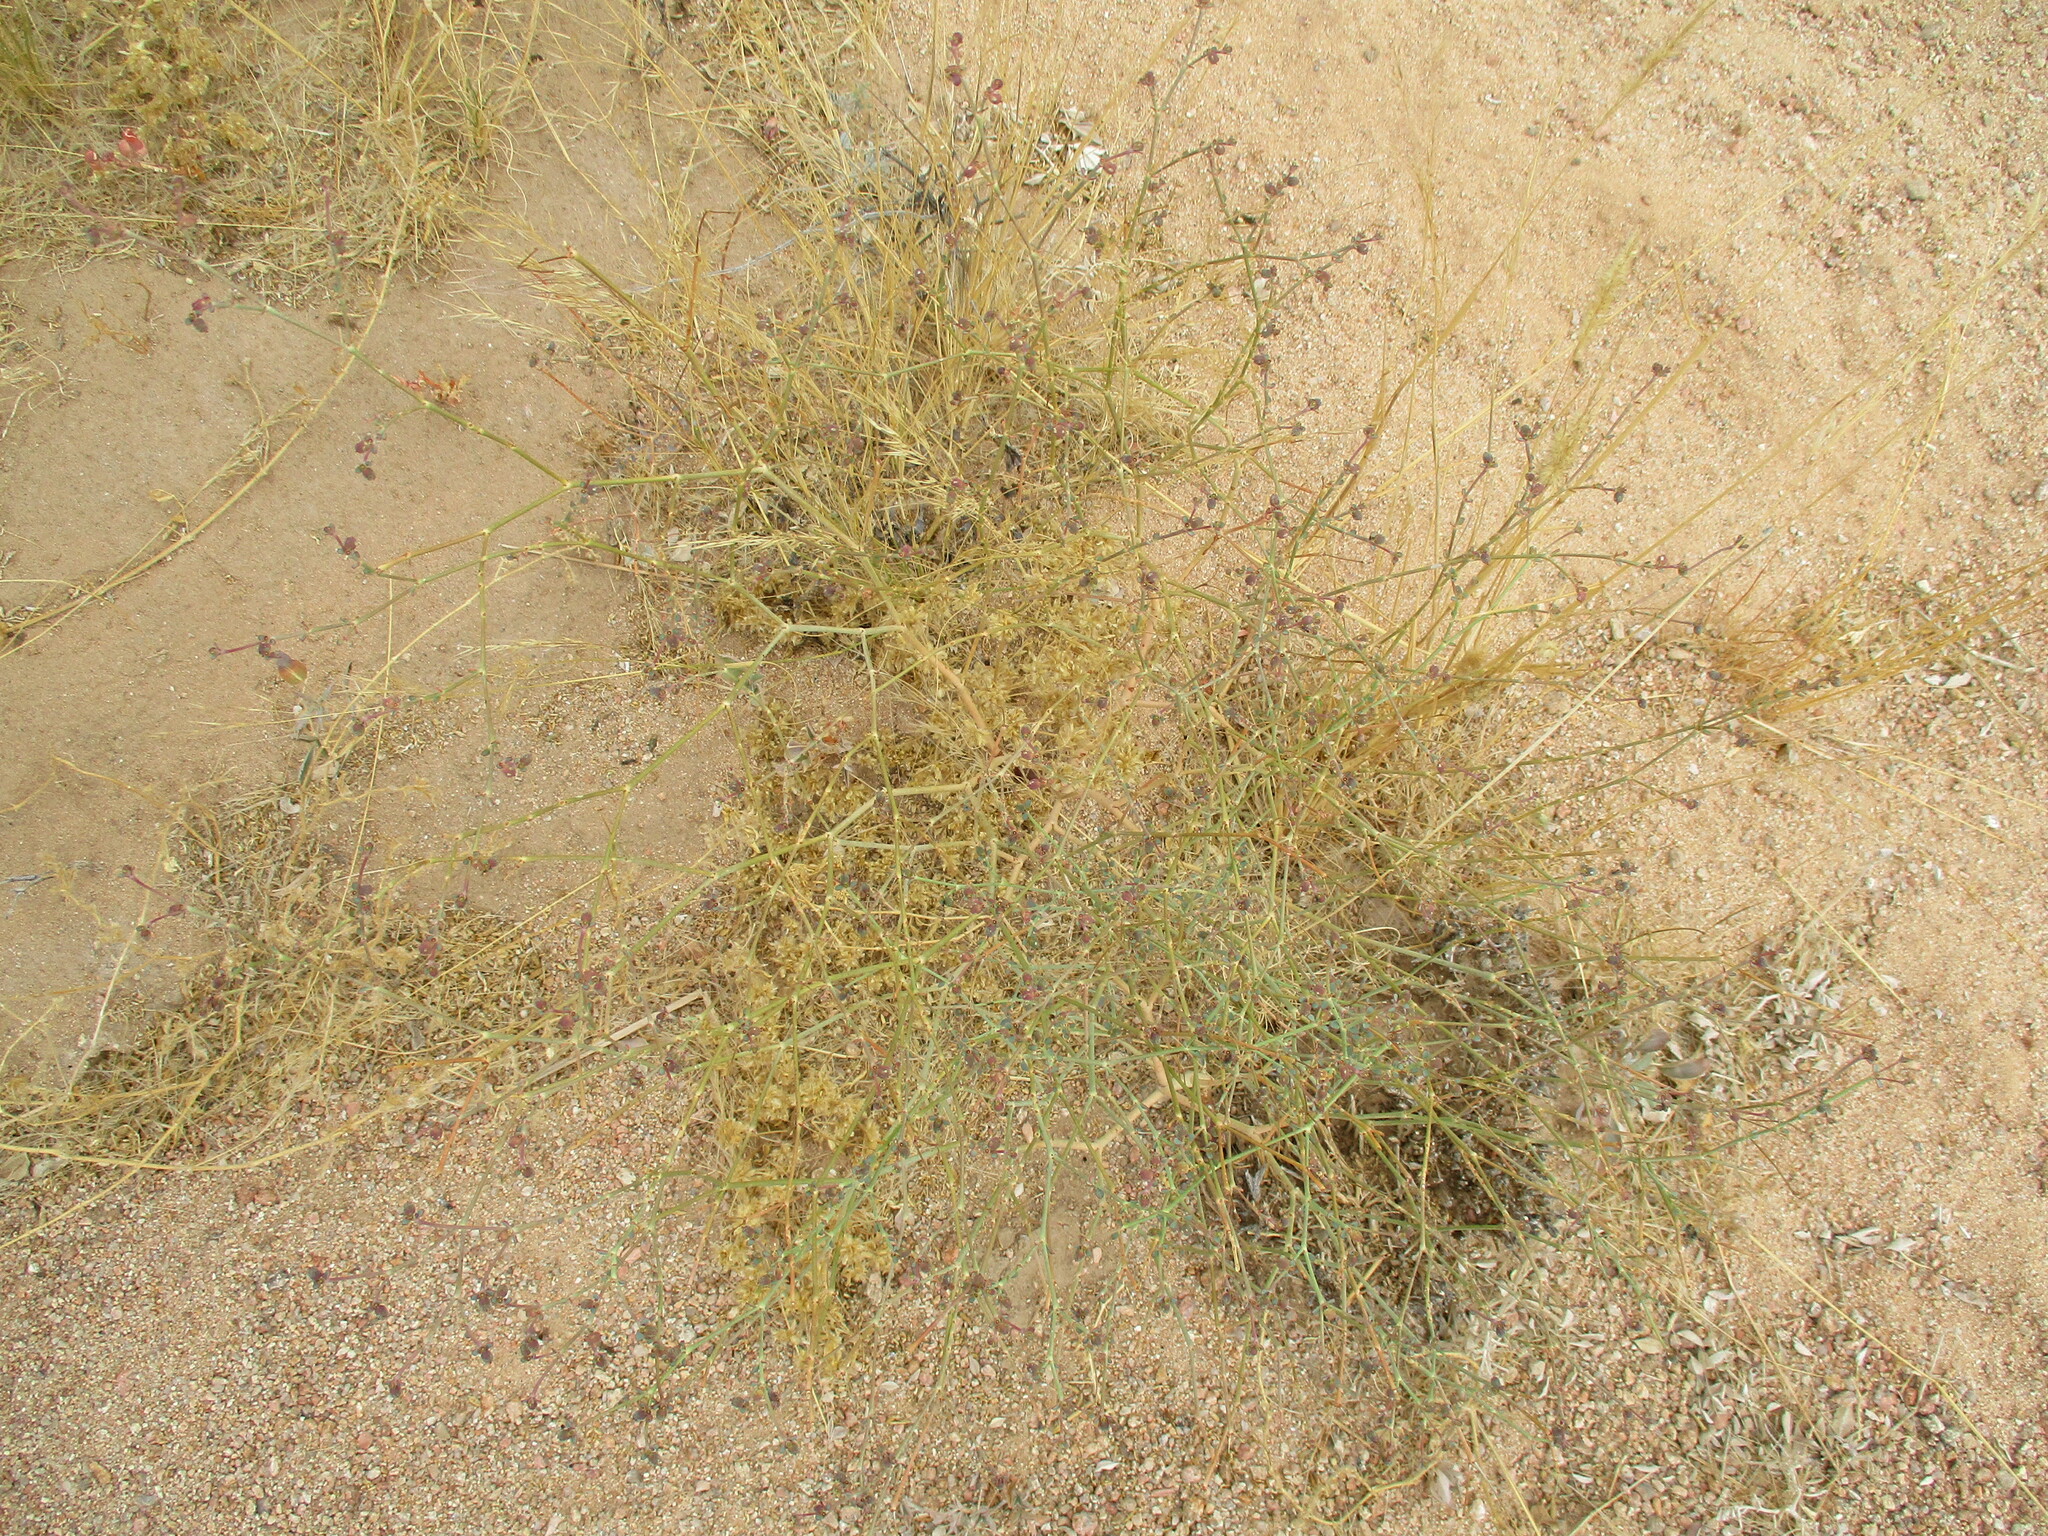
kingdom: Plantae
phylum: Tracheophyta
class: Magnoliopsida
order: Malpighiales
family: Euphorbiaceae
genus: Euphorbia
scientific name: Euphorbia glanduligera
